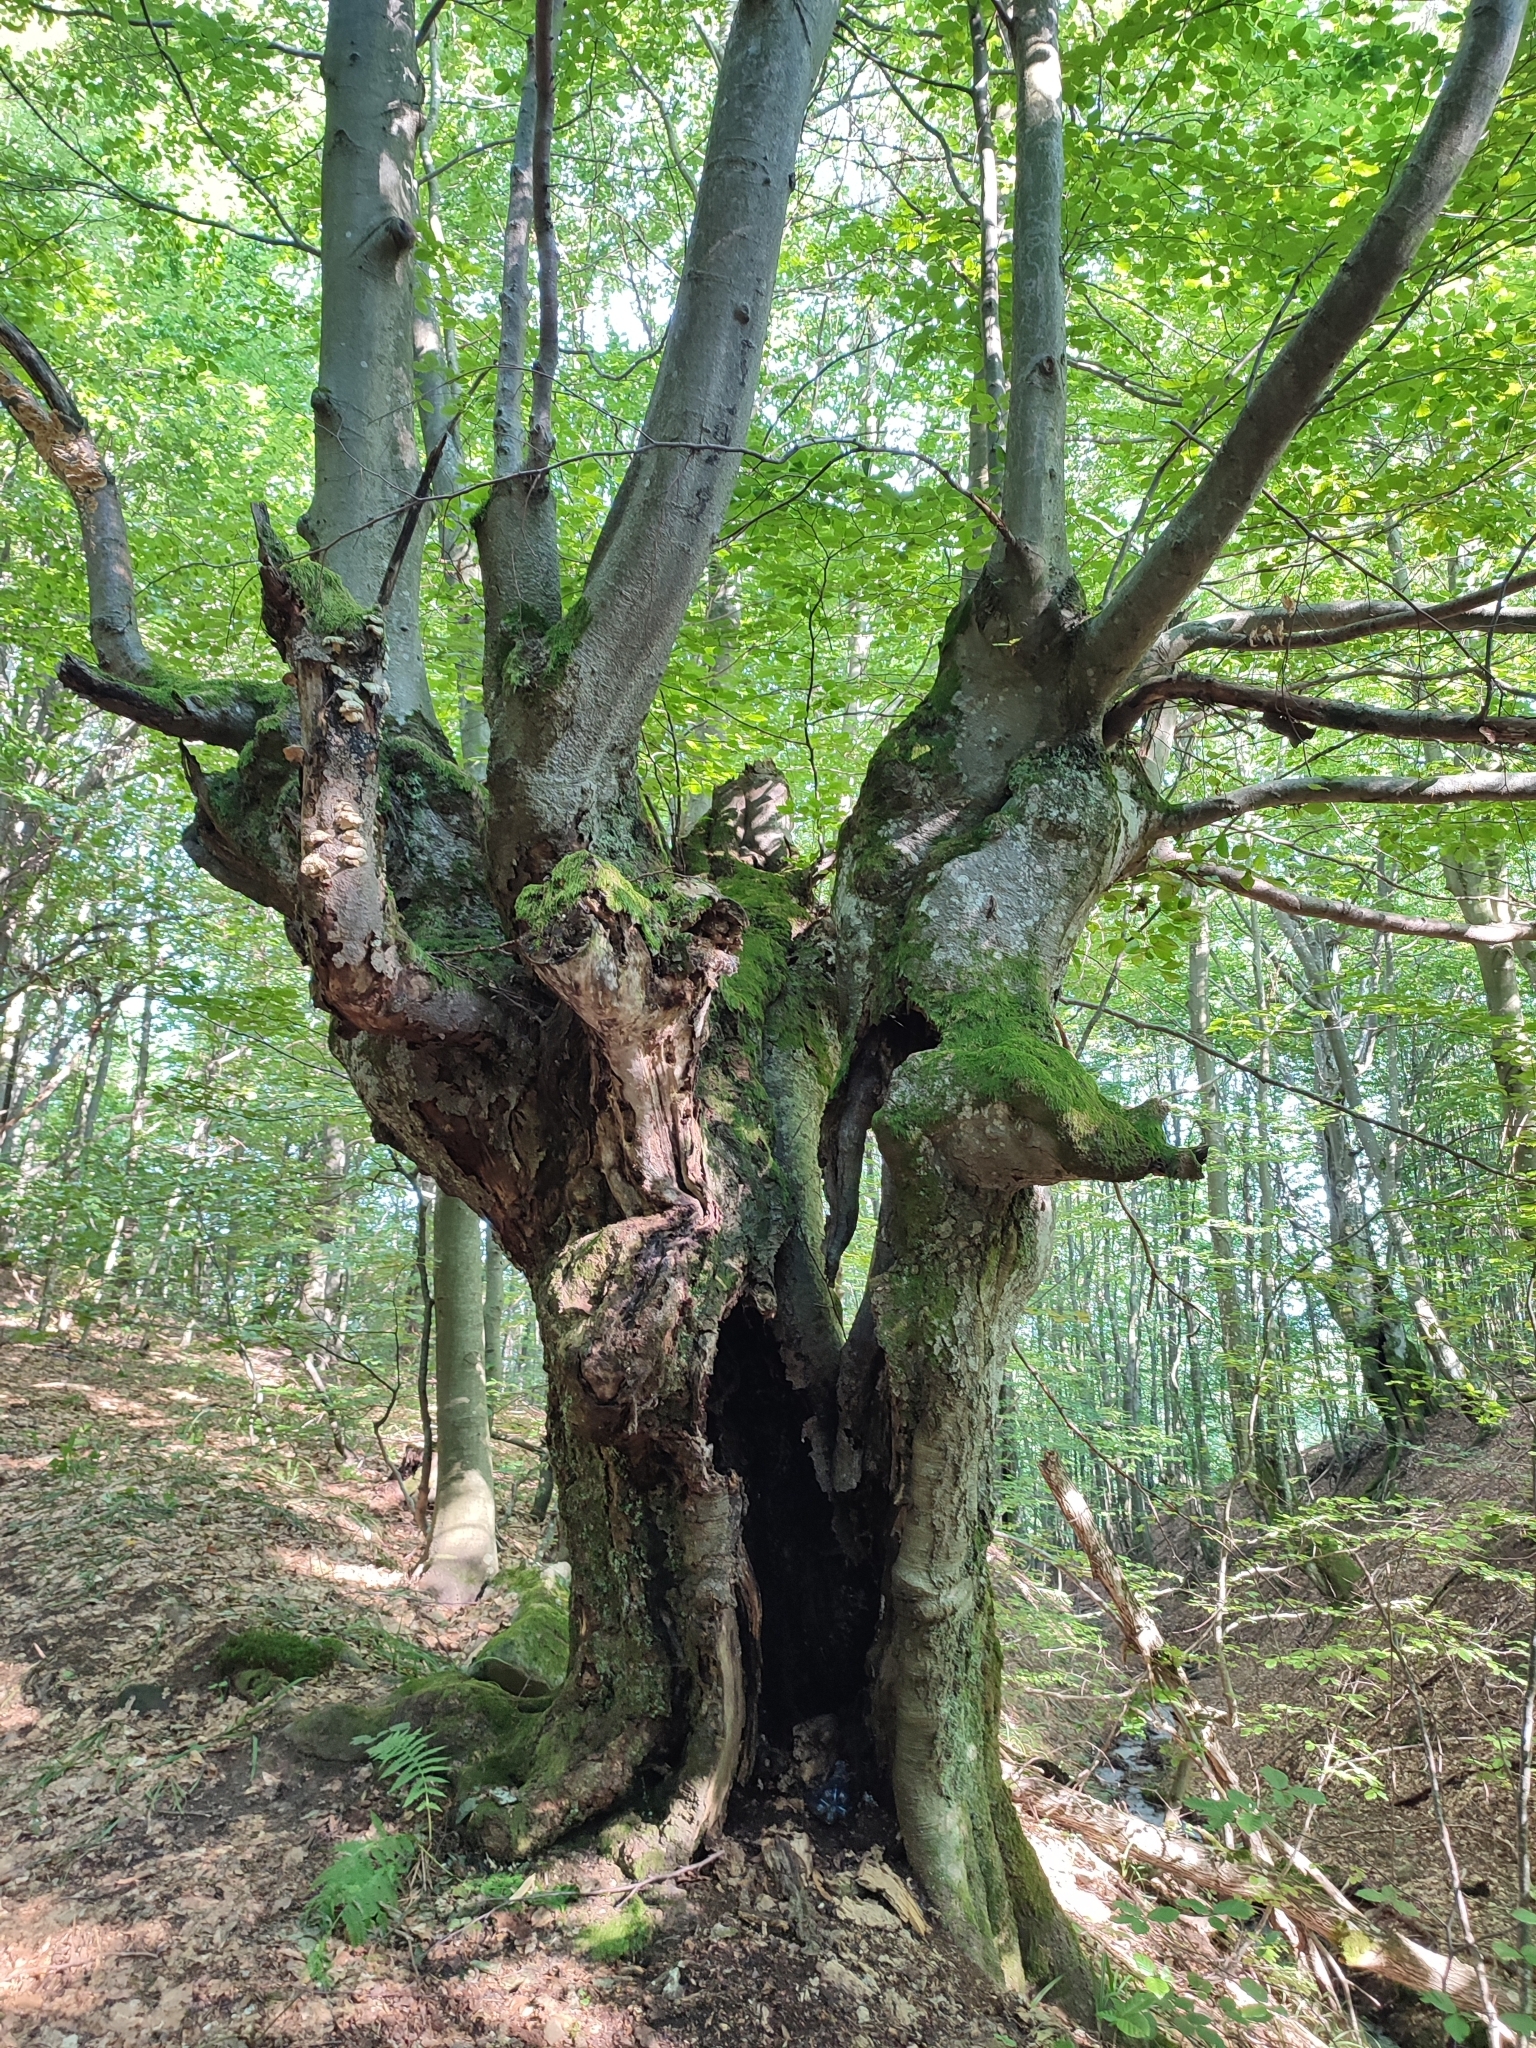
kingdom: Plantae
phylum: Tracheophyta
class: Magnoliopsida
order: Fagales
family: Fagaceae
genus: Fagus
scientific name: Fagus sylvatica
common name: Beech
